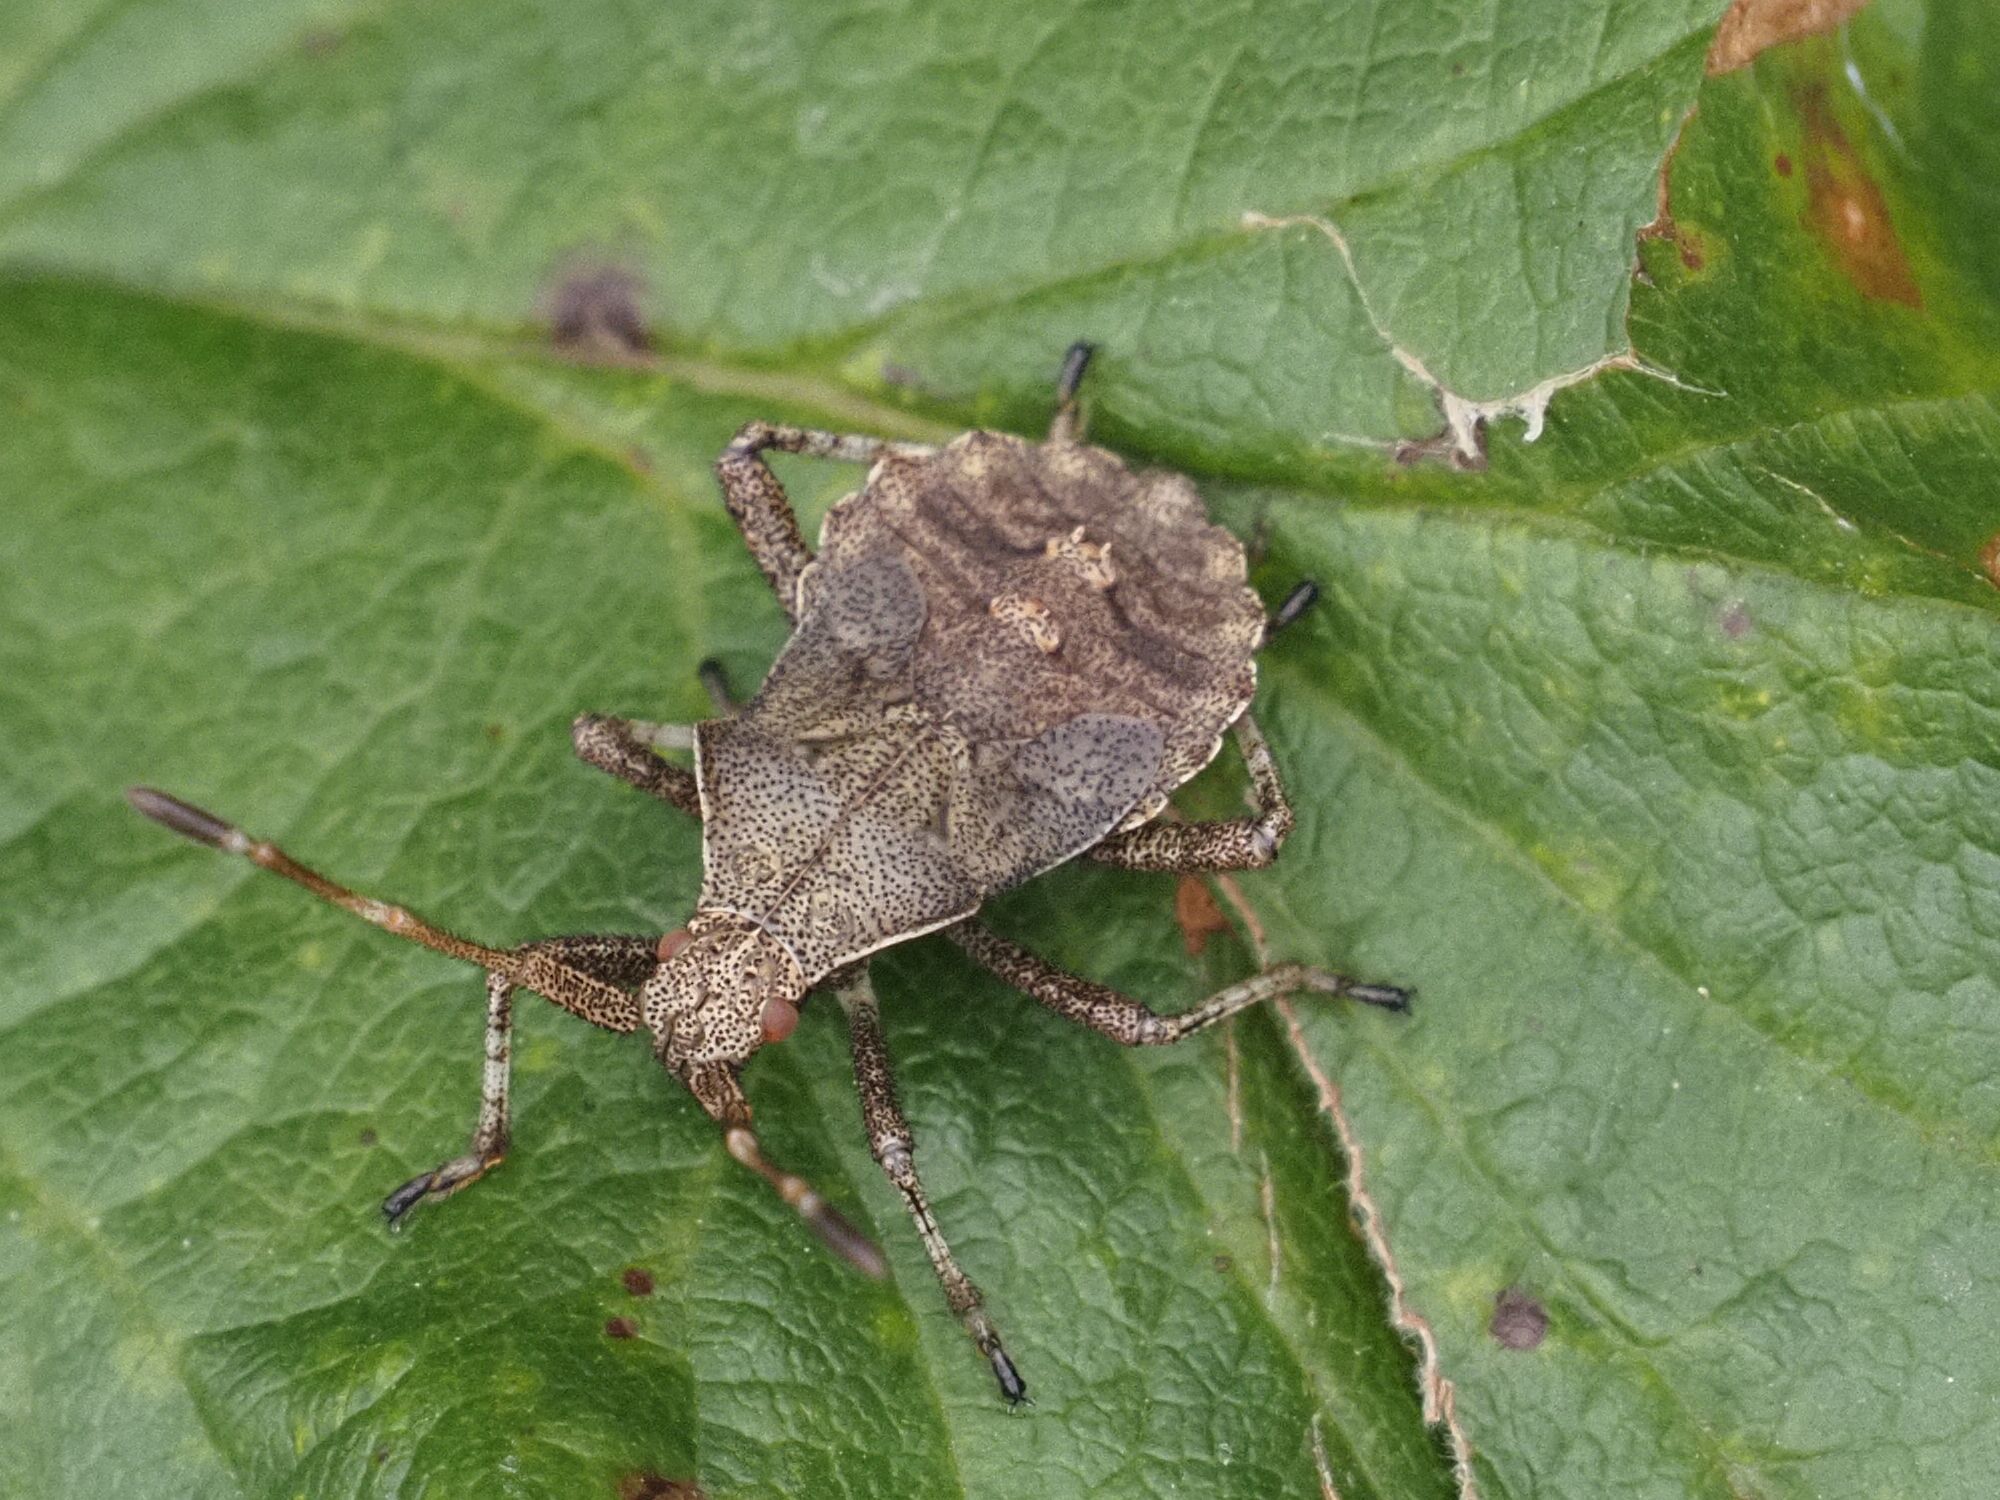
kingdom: Animalia
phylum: Arthropoda
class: Insecta
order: Hemiptera
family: Coreidae
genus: Coreus
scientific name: Coreus marginatus
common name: Dock bug
